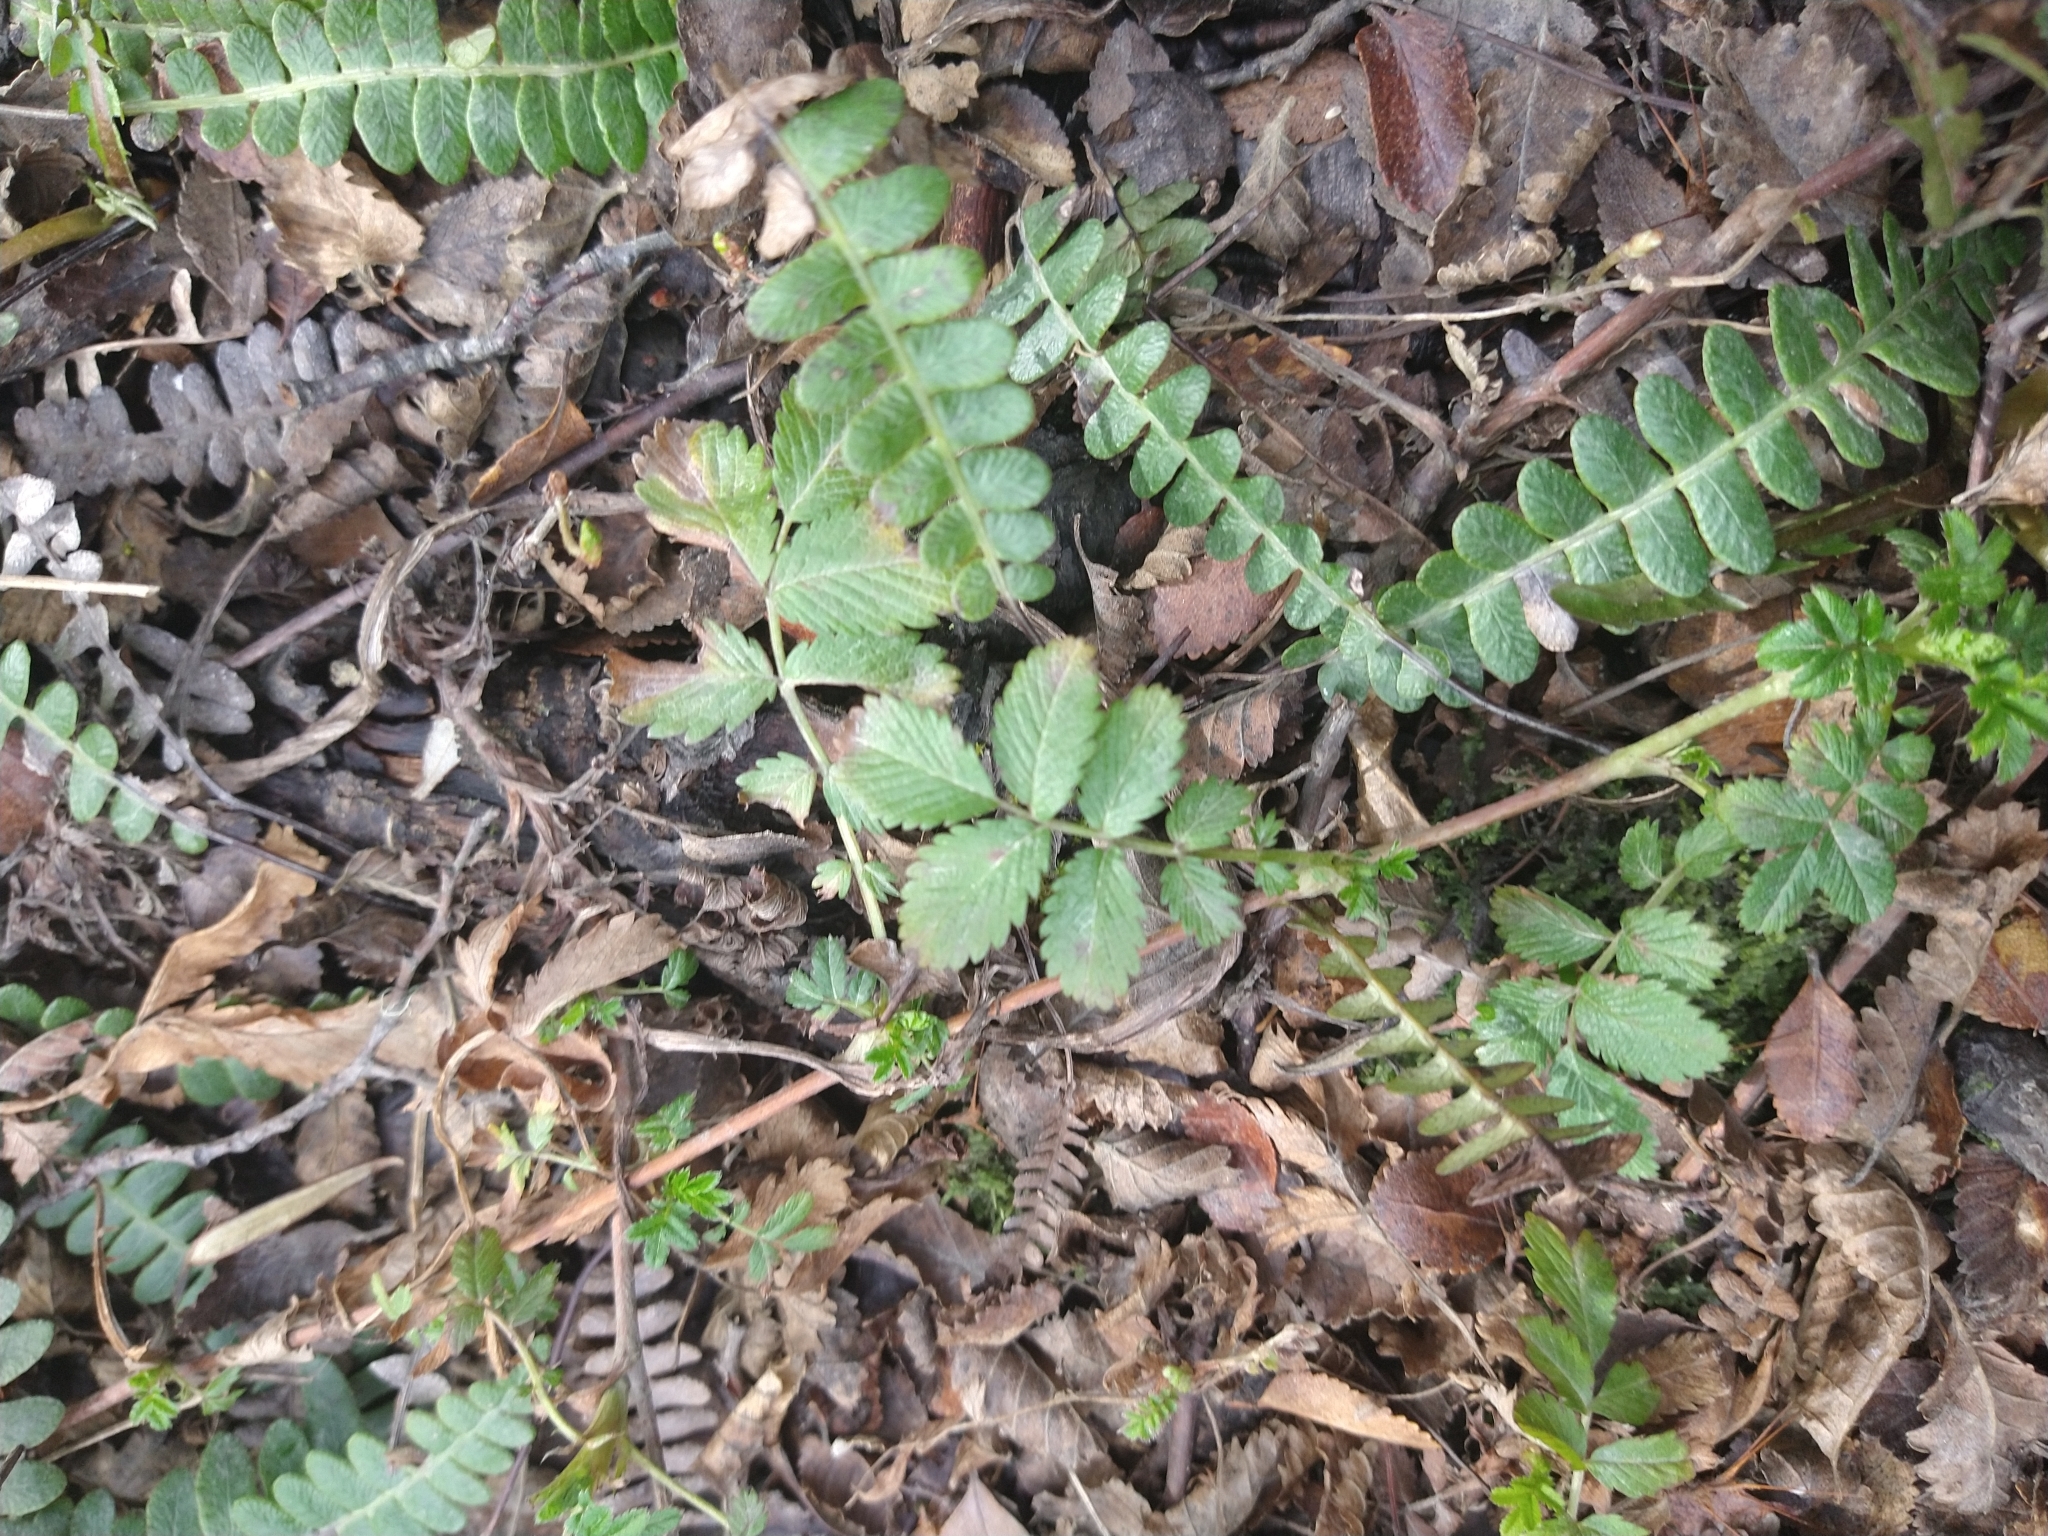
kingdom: Plantae
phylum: Tracheophyta
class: Magnoliopsida
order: Rosales
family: Rosaceae
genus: Acaena
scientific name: Acaena
